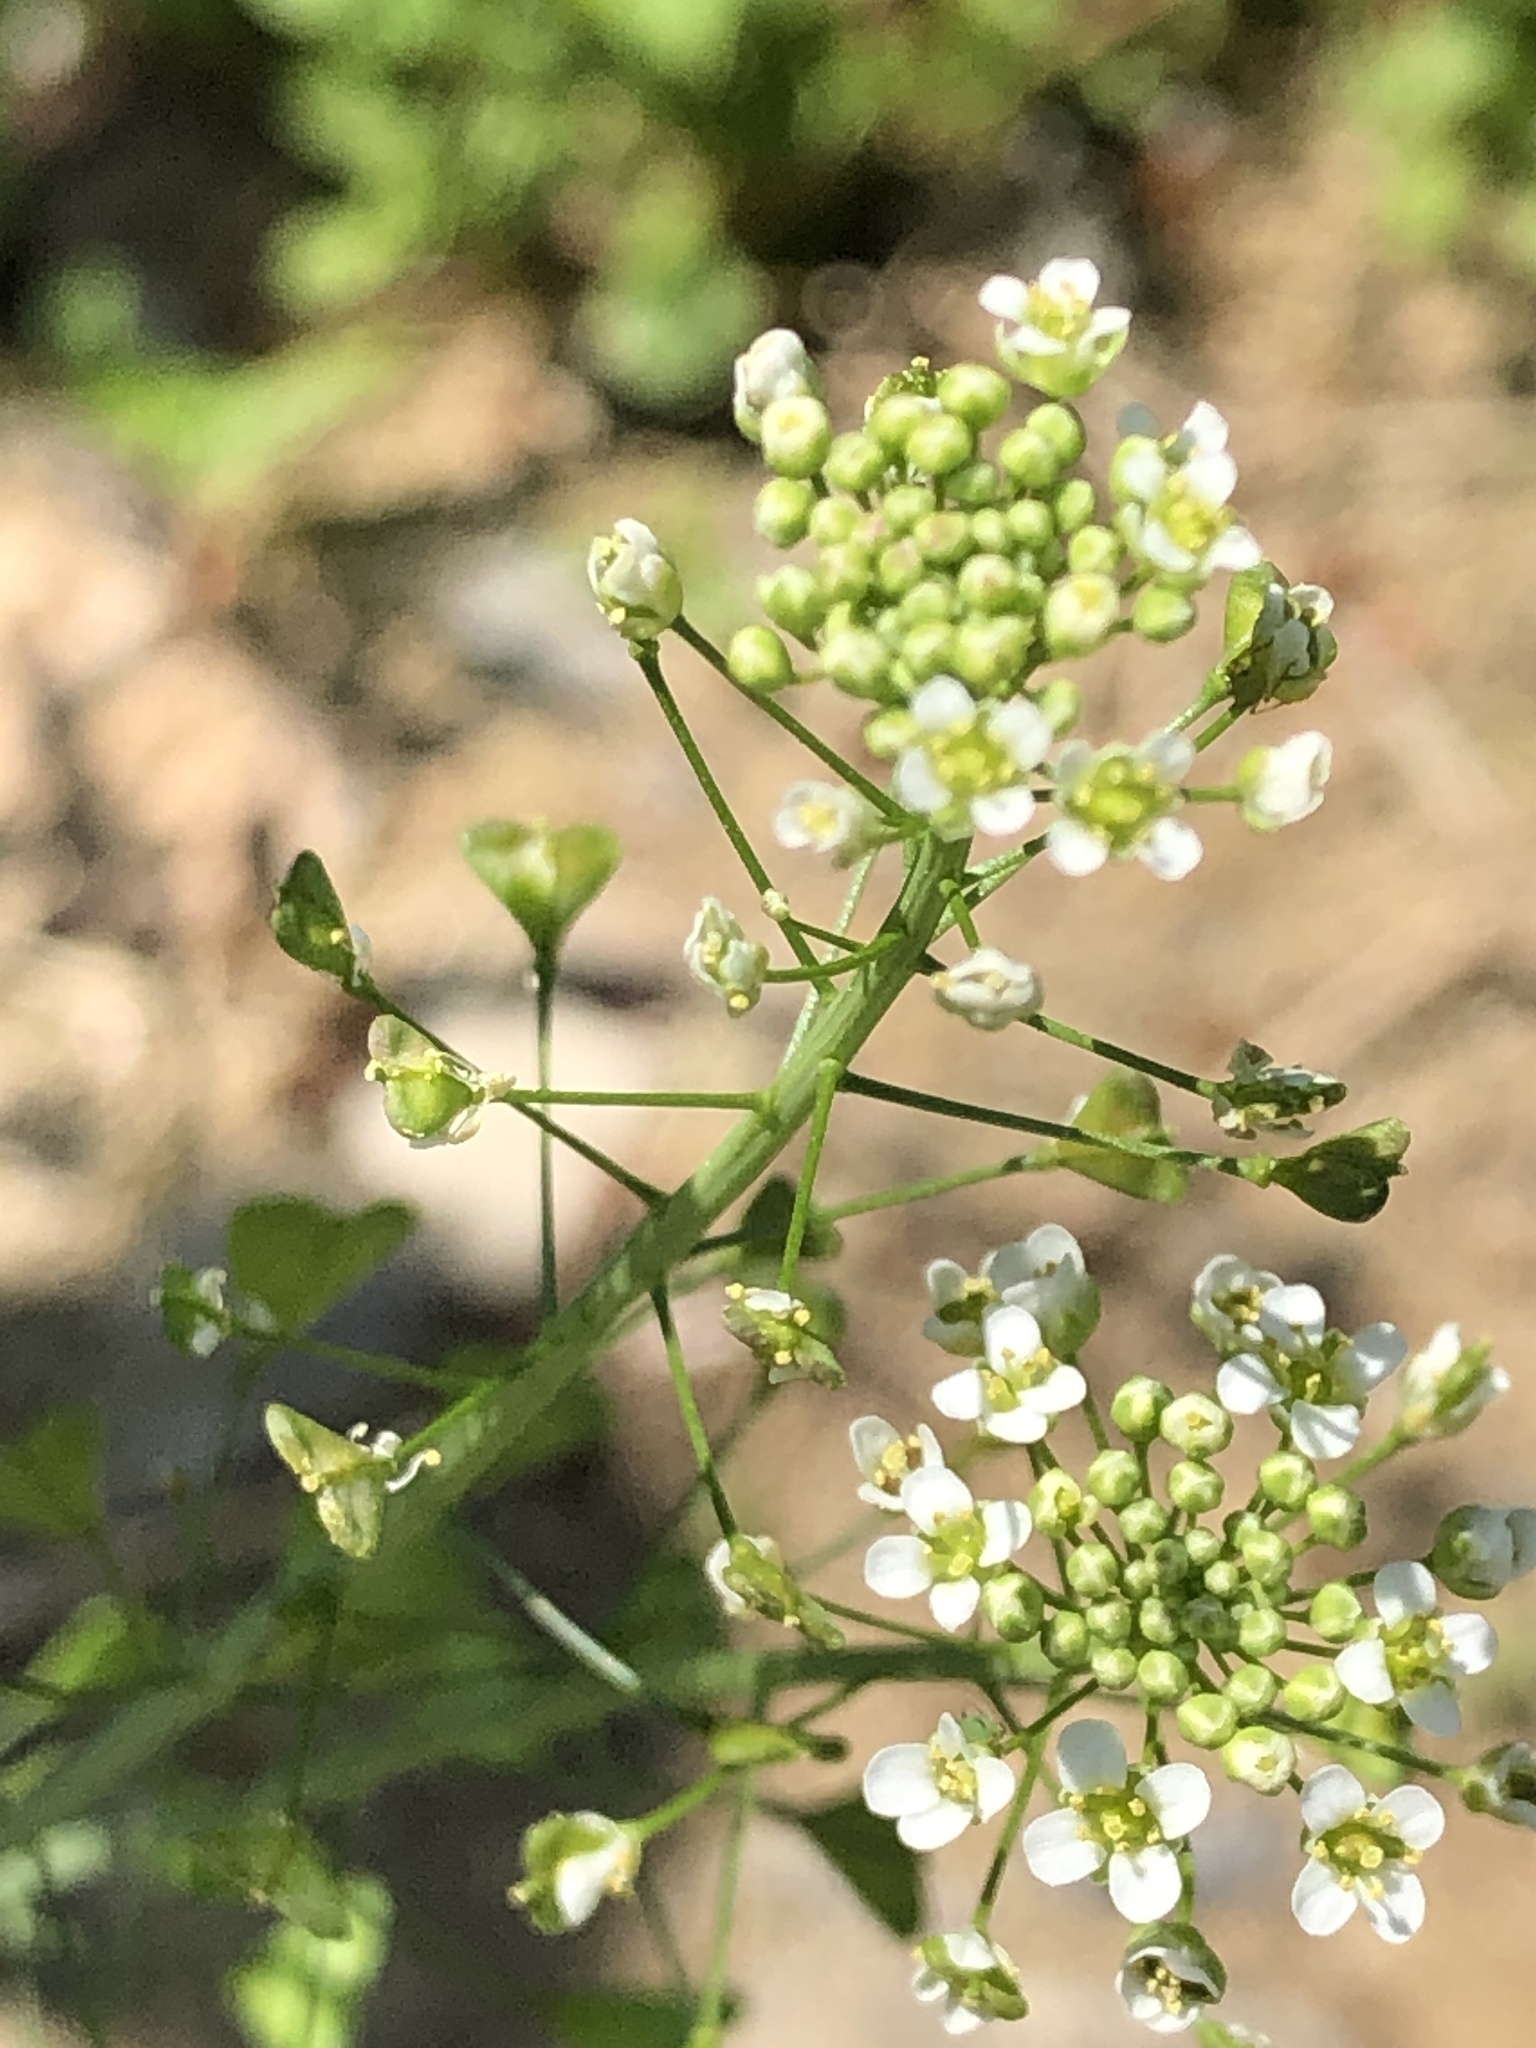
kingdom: Plantae
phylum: Tracheophyta
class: Magnoliopsida
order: Brassicales
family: Brassicaceae
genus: Capsella
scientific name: Capsella bursa-pastoris
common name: Shepherd's purse
